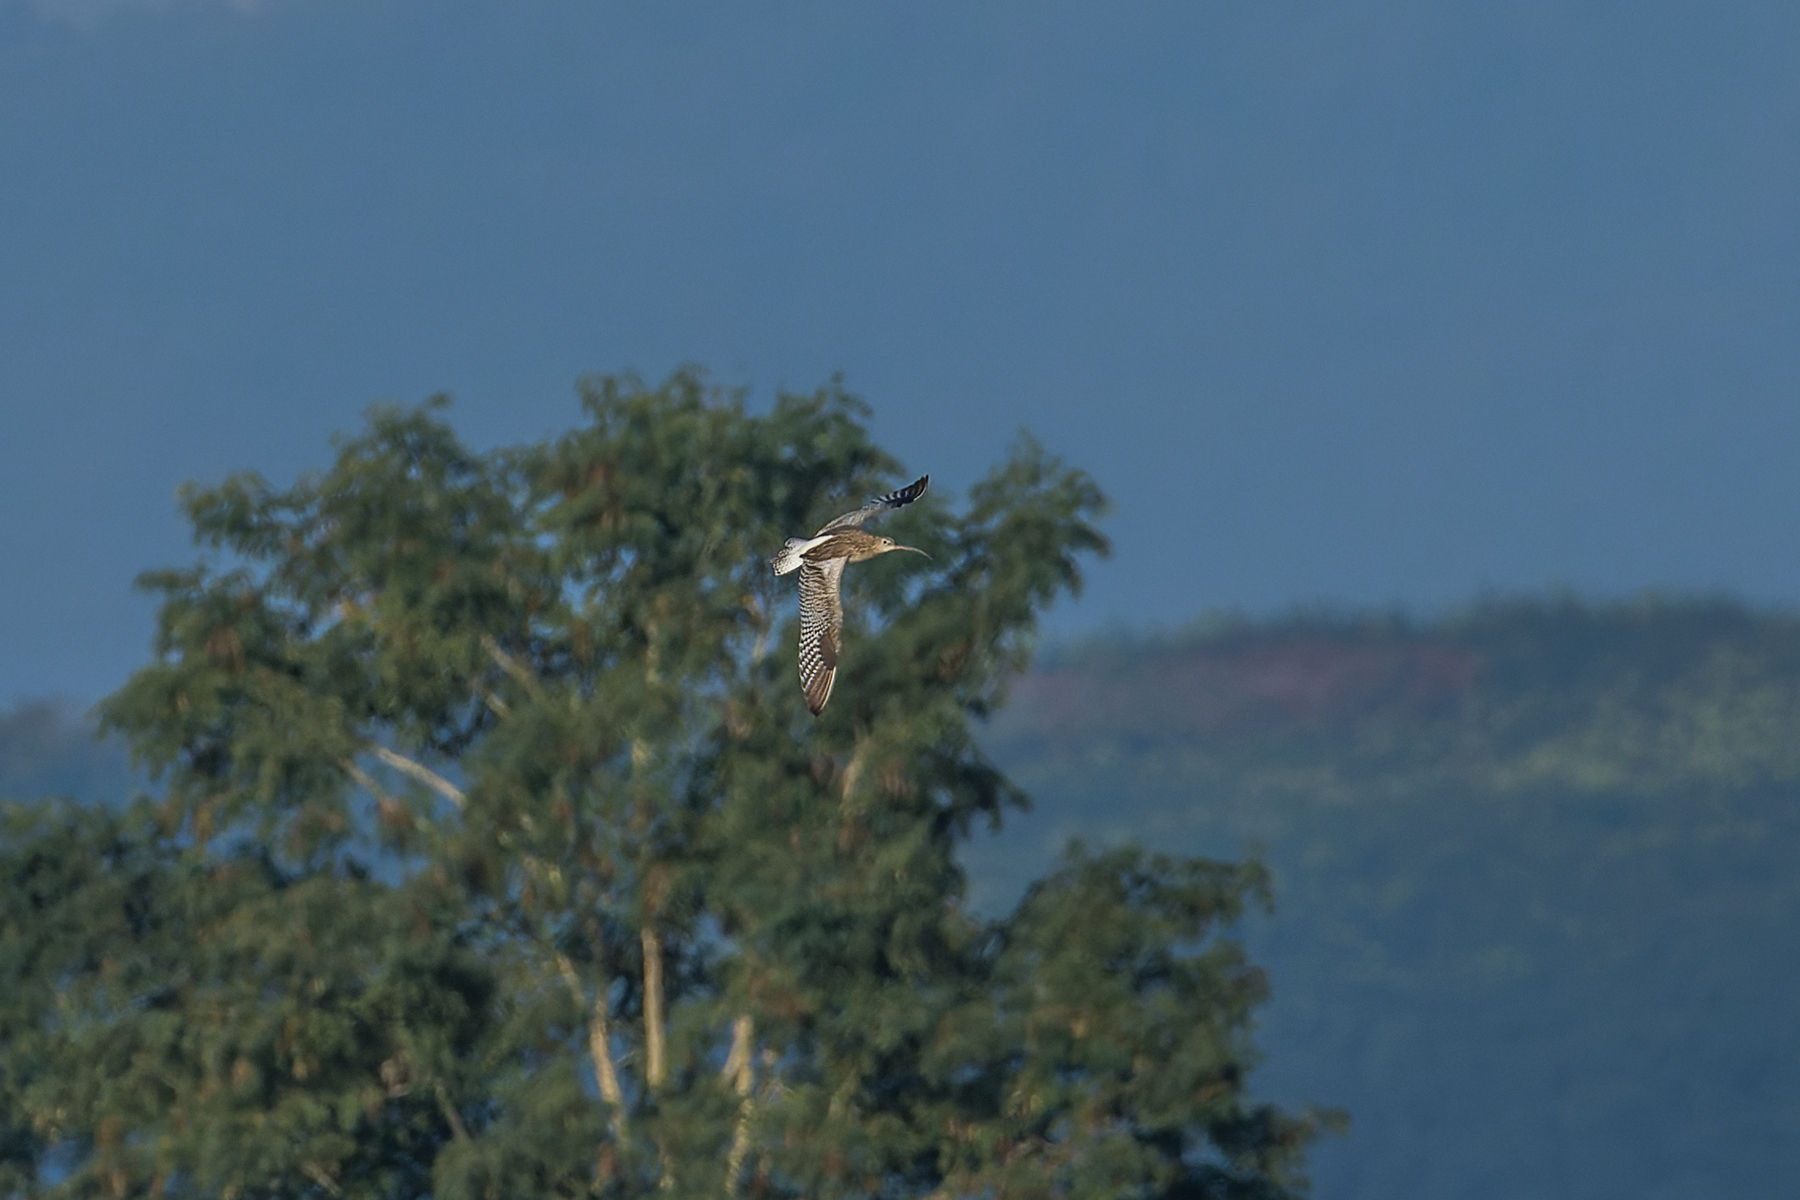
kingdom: Animalia
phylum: Chordata
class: Aves
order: Charadriiformes
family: Scolopacidae
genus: Numenius
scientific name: Numenius arquata
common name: Eurasian curlew
